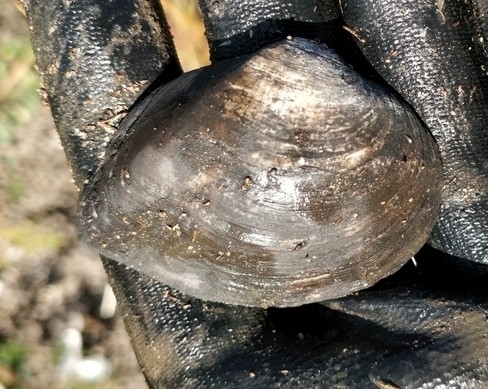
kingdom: Animalia
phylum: Mollusca
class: Bivalvia
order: Unionida
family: Unionidae
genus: Truncilla
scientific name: Truncilla truncata
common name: Deertoe
